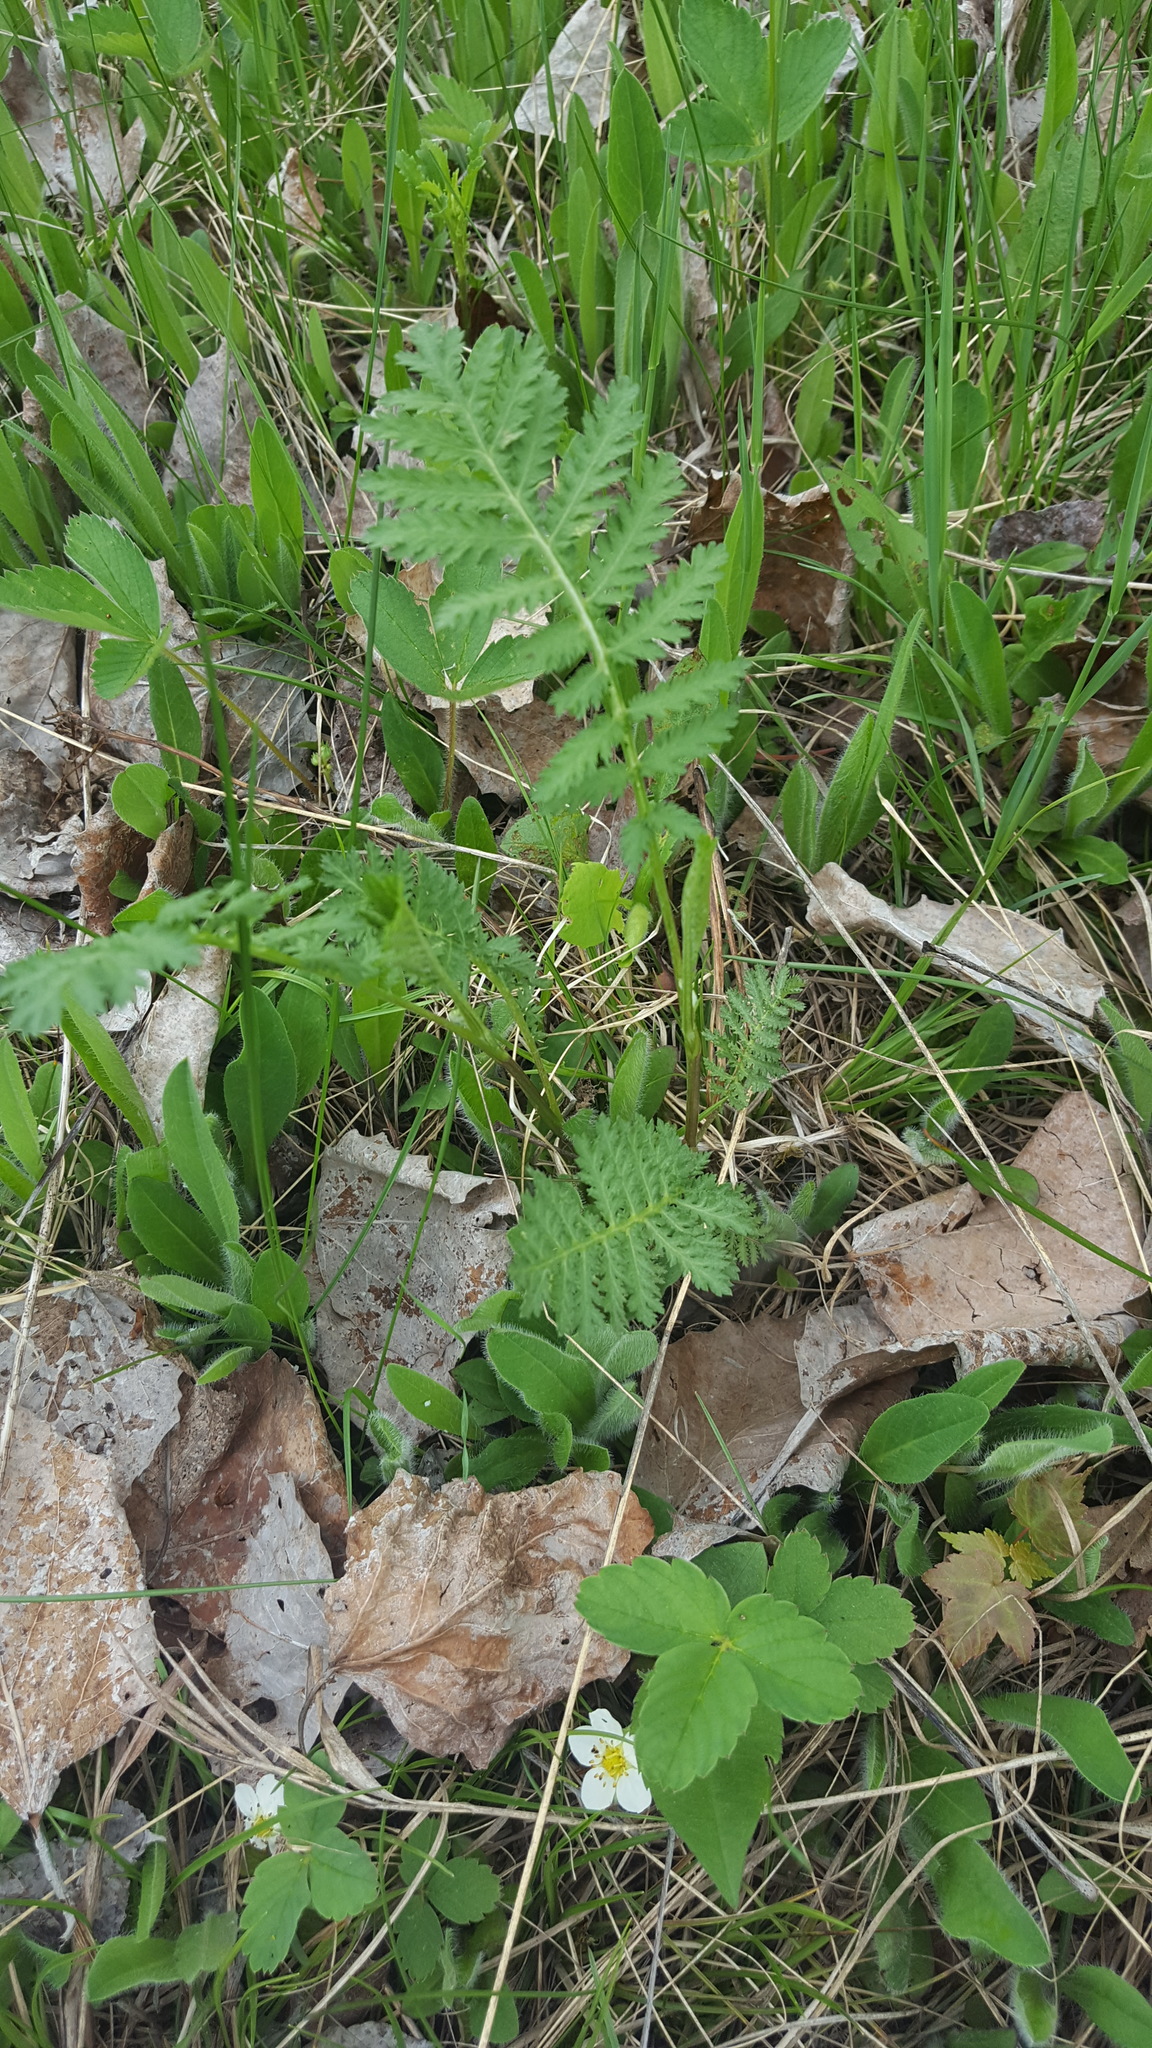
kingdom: Plantae
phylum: Tracheophyta
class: Magnoliopsida
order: Asterales
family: Asteraceae
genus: Tanacetum
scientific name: Tanacetum vulgare
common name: Common tansy
